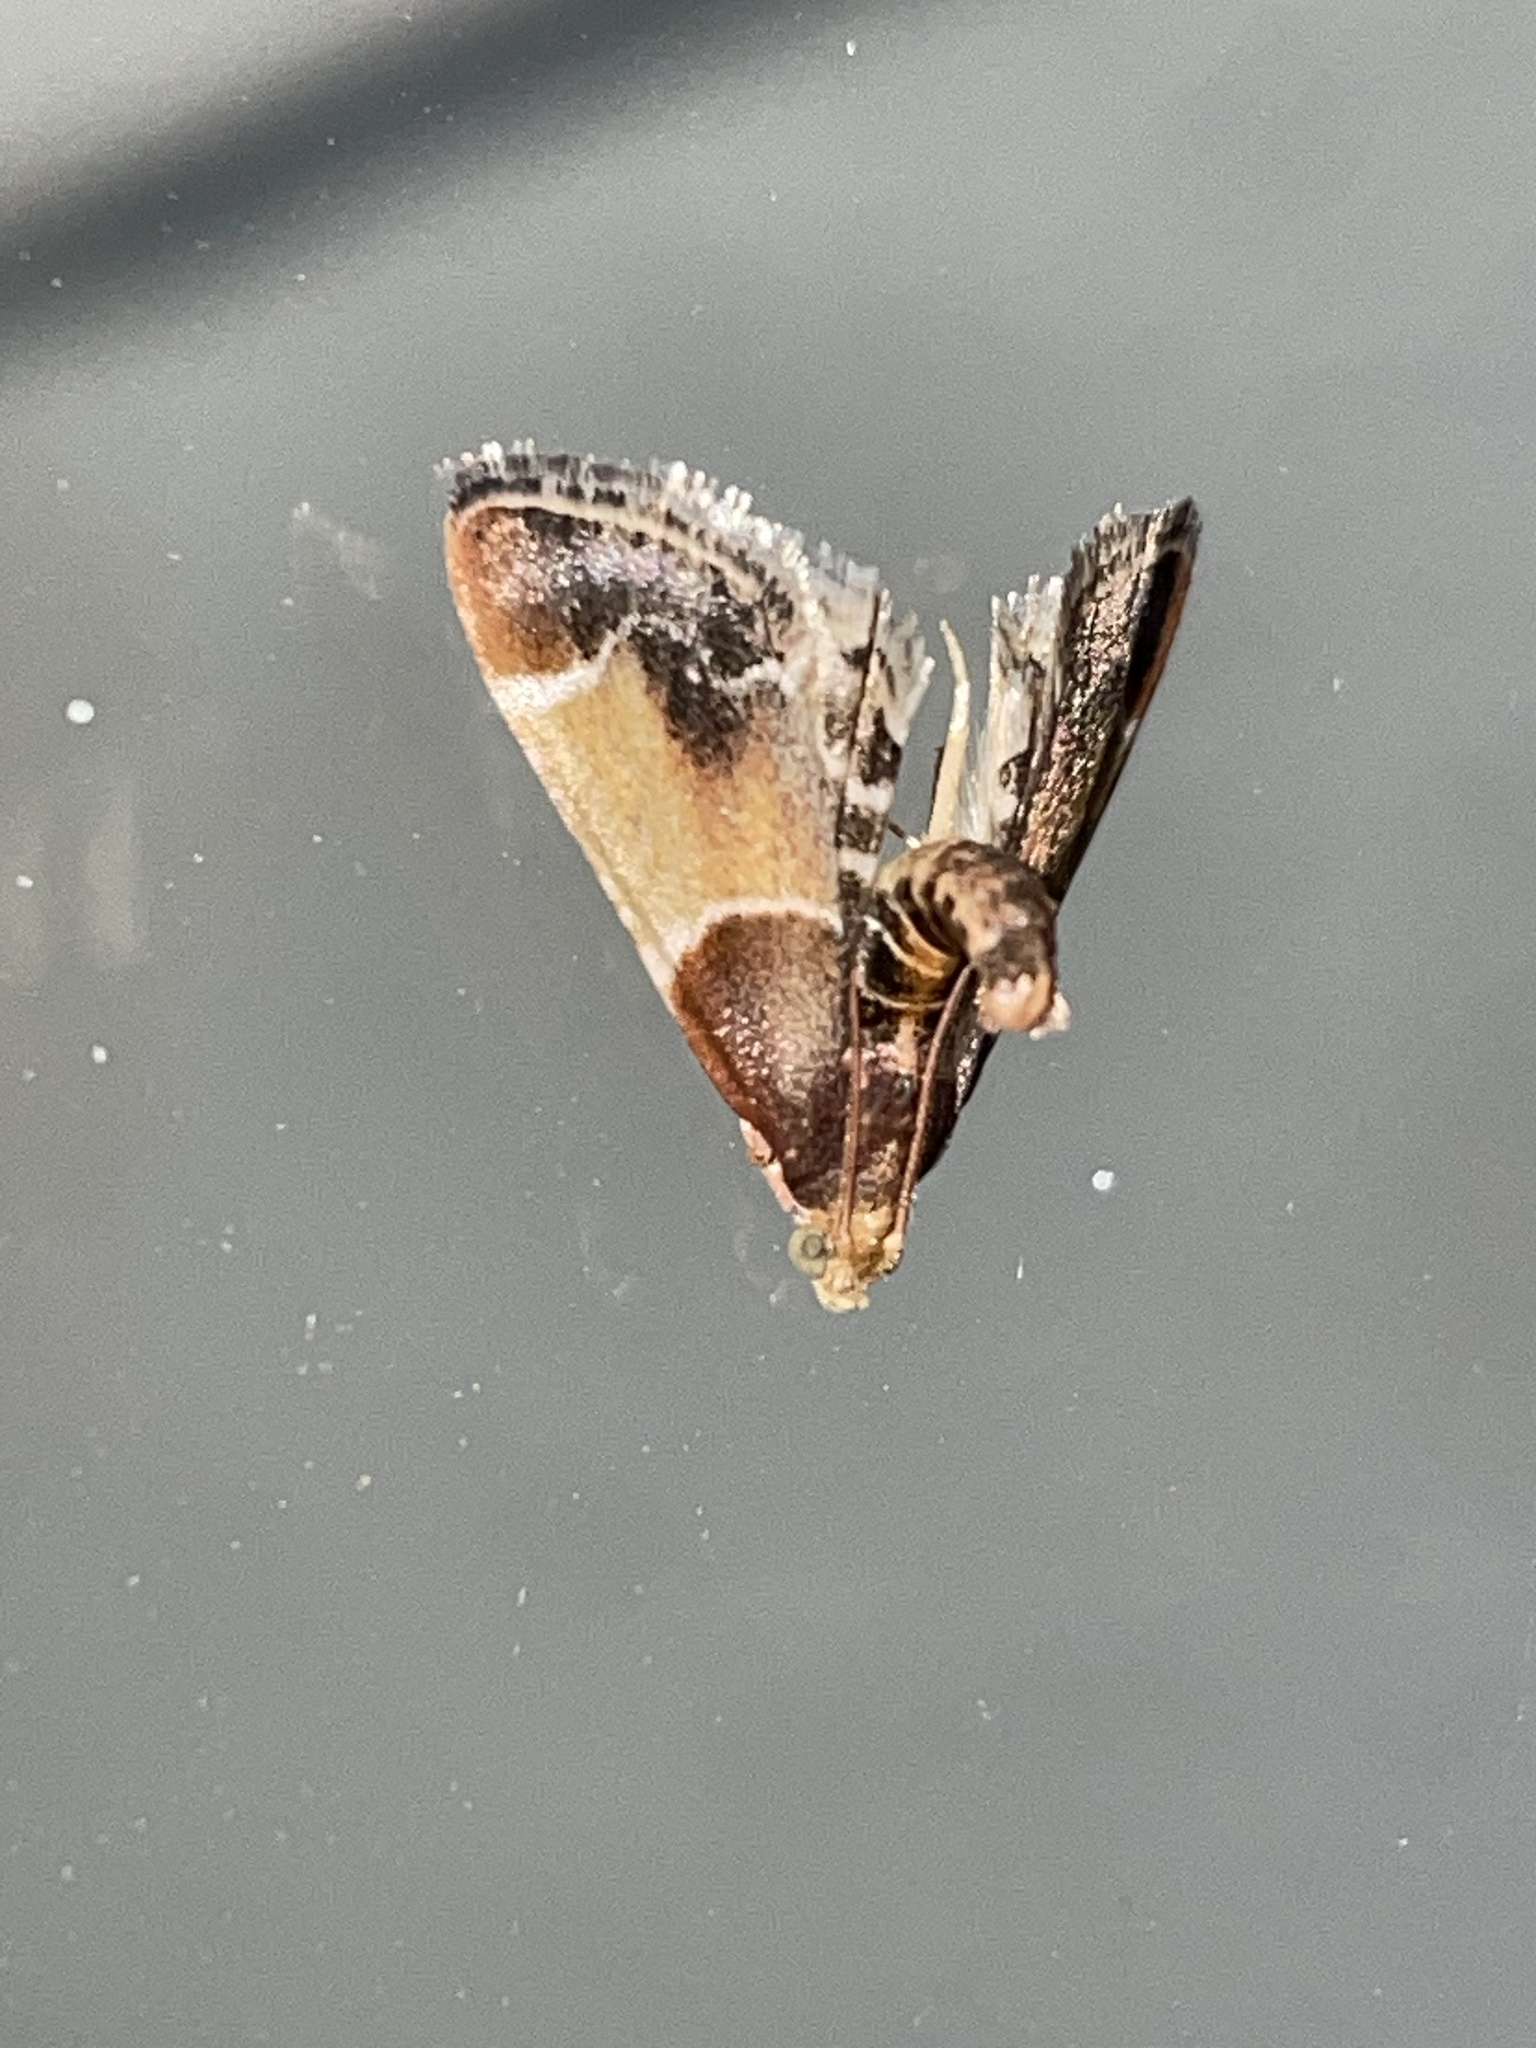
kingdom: Animalia
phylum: Arthropoda
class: Insecta
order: Lepidoptera
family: Pyralidae
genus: Pyralis
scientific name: Pyralis farinalis
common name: Meal moth
